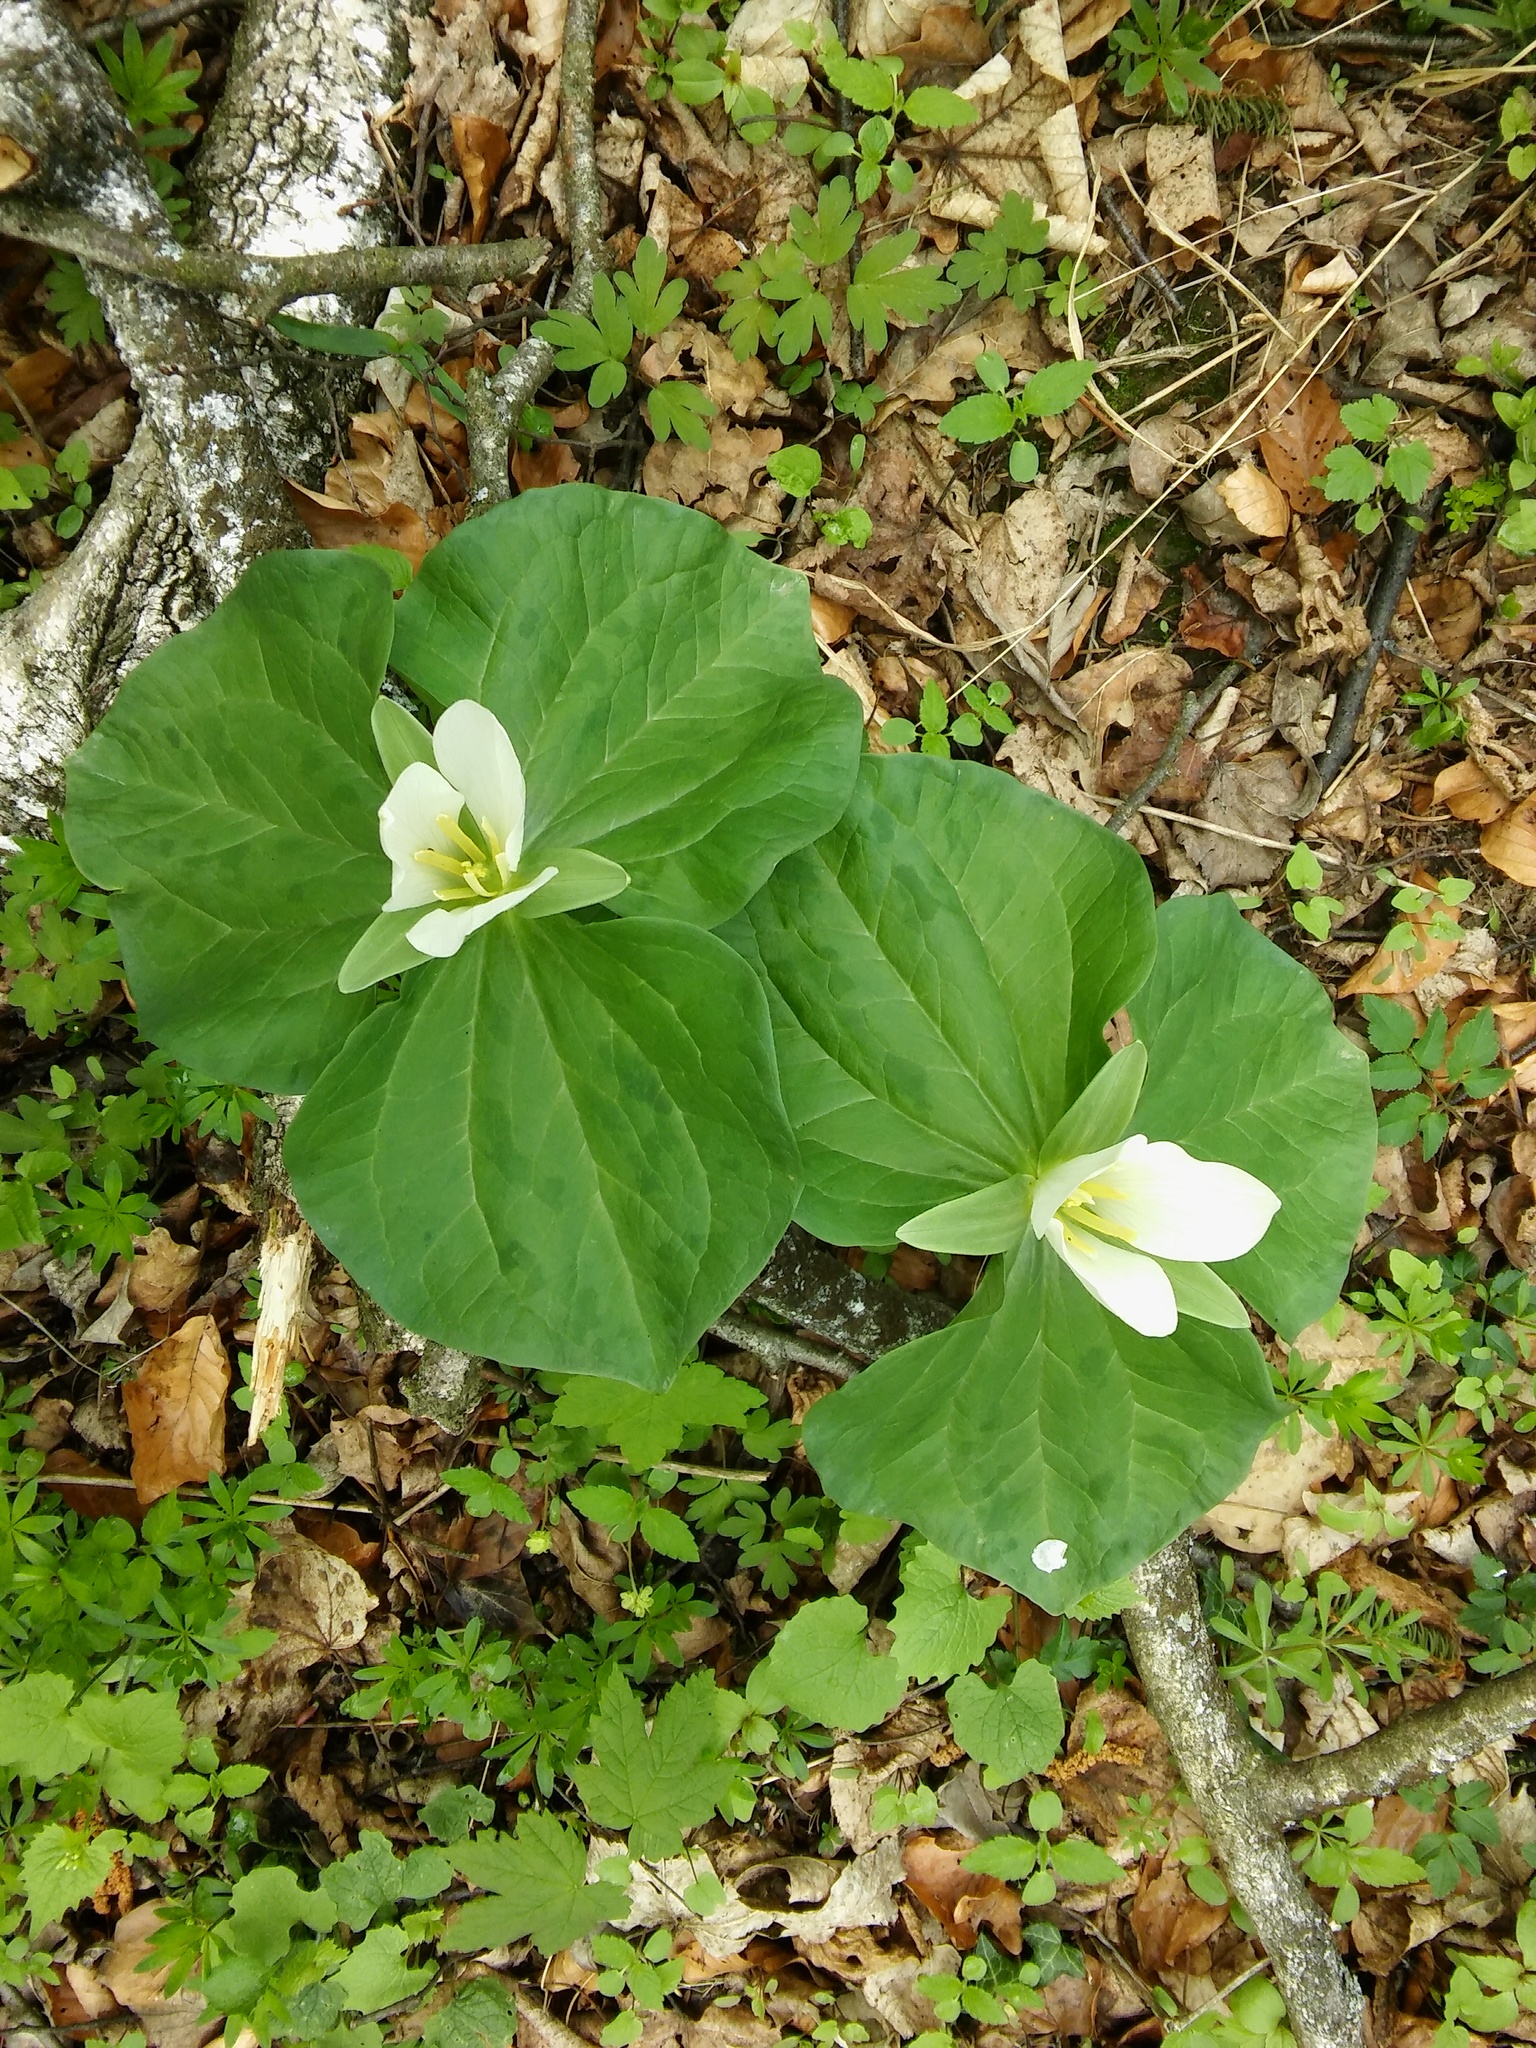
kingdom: Plantae
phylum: Tracheophyta
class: Liliopsida
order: Liliales
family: Melanthiaceae
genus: Trillium
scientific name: Trillium albidum
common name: Freeman's trillium
